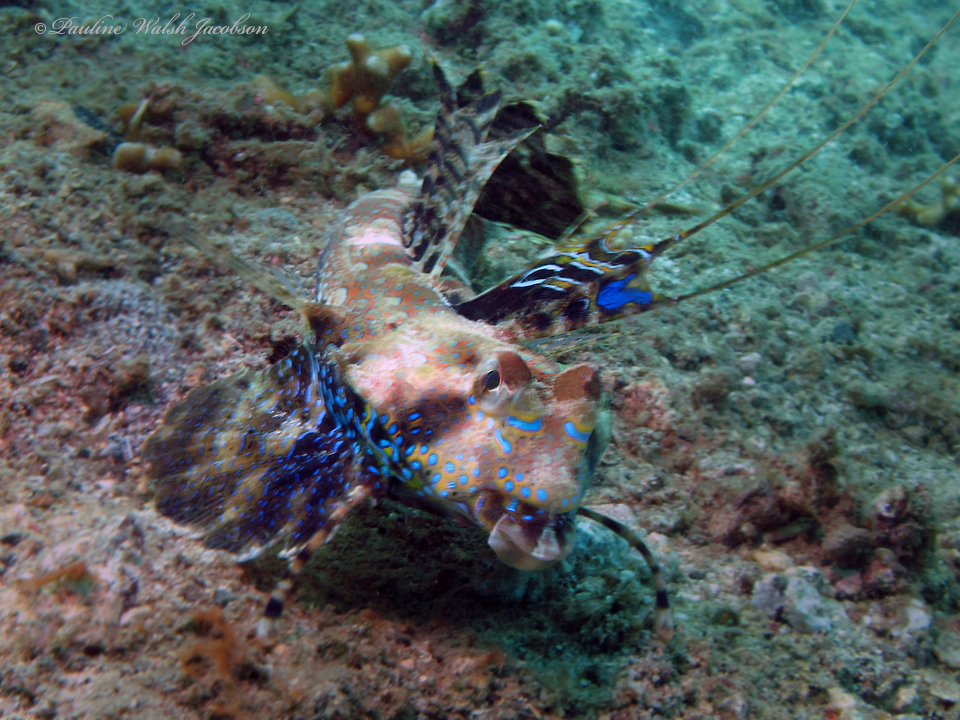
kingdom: Animalia
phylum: Chordata
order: Perciformes
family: Callionymidae
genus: Dactylopus
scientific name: Dactylopus dactylopus
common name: Fingered dragonet
